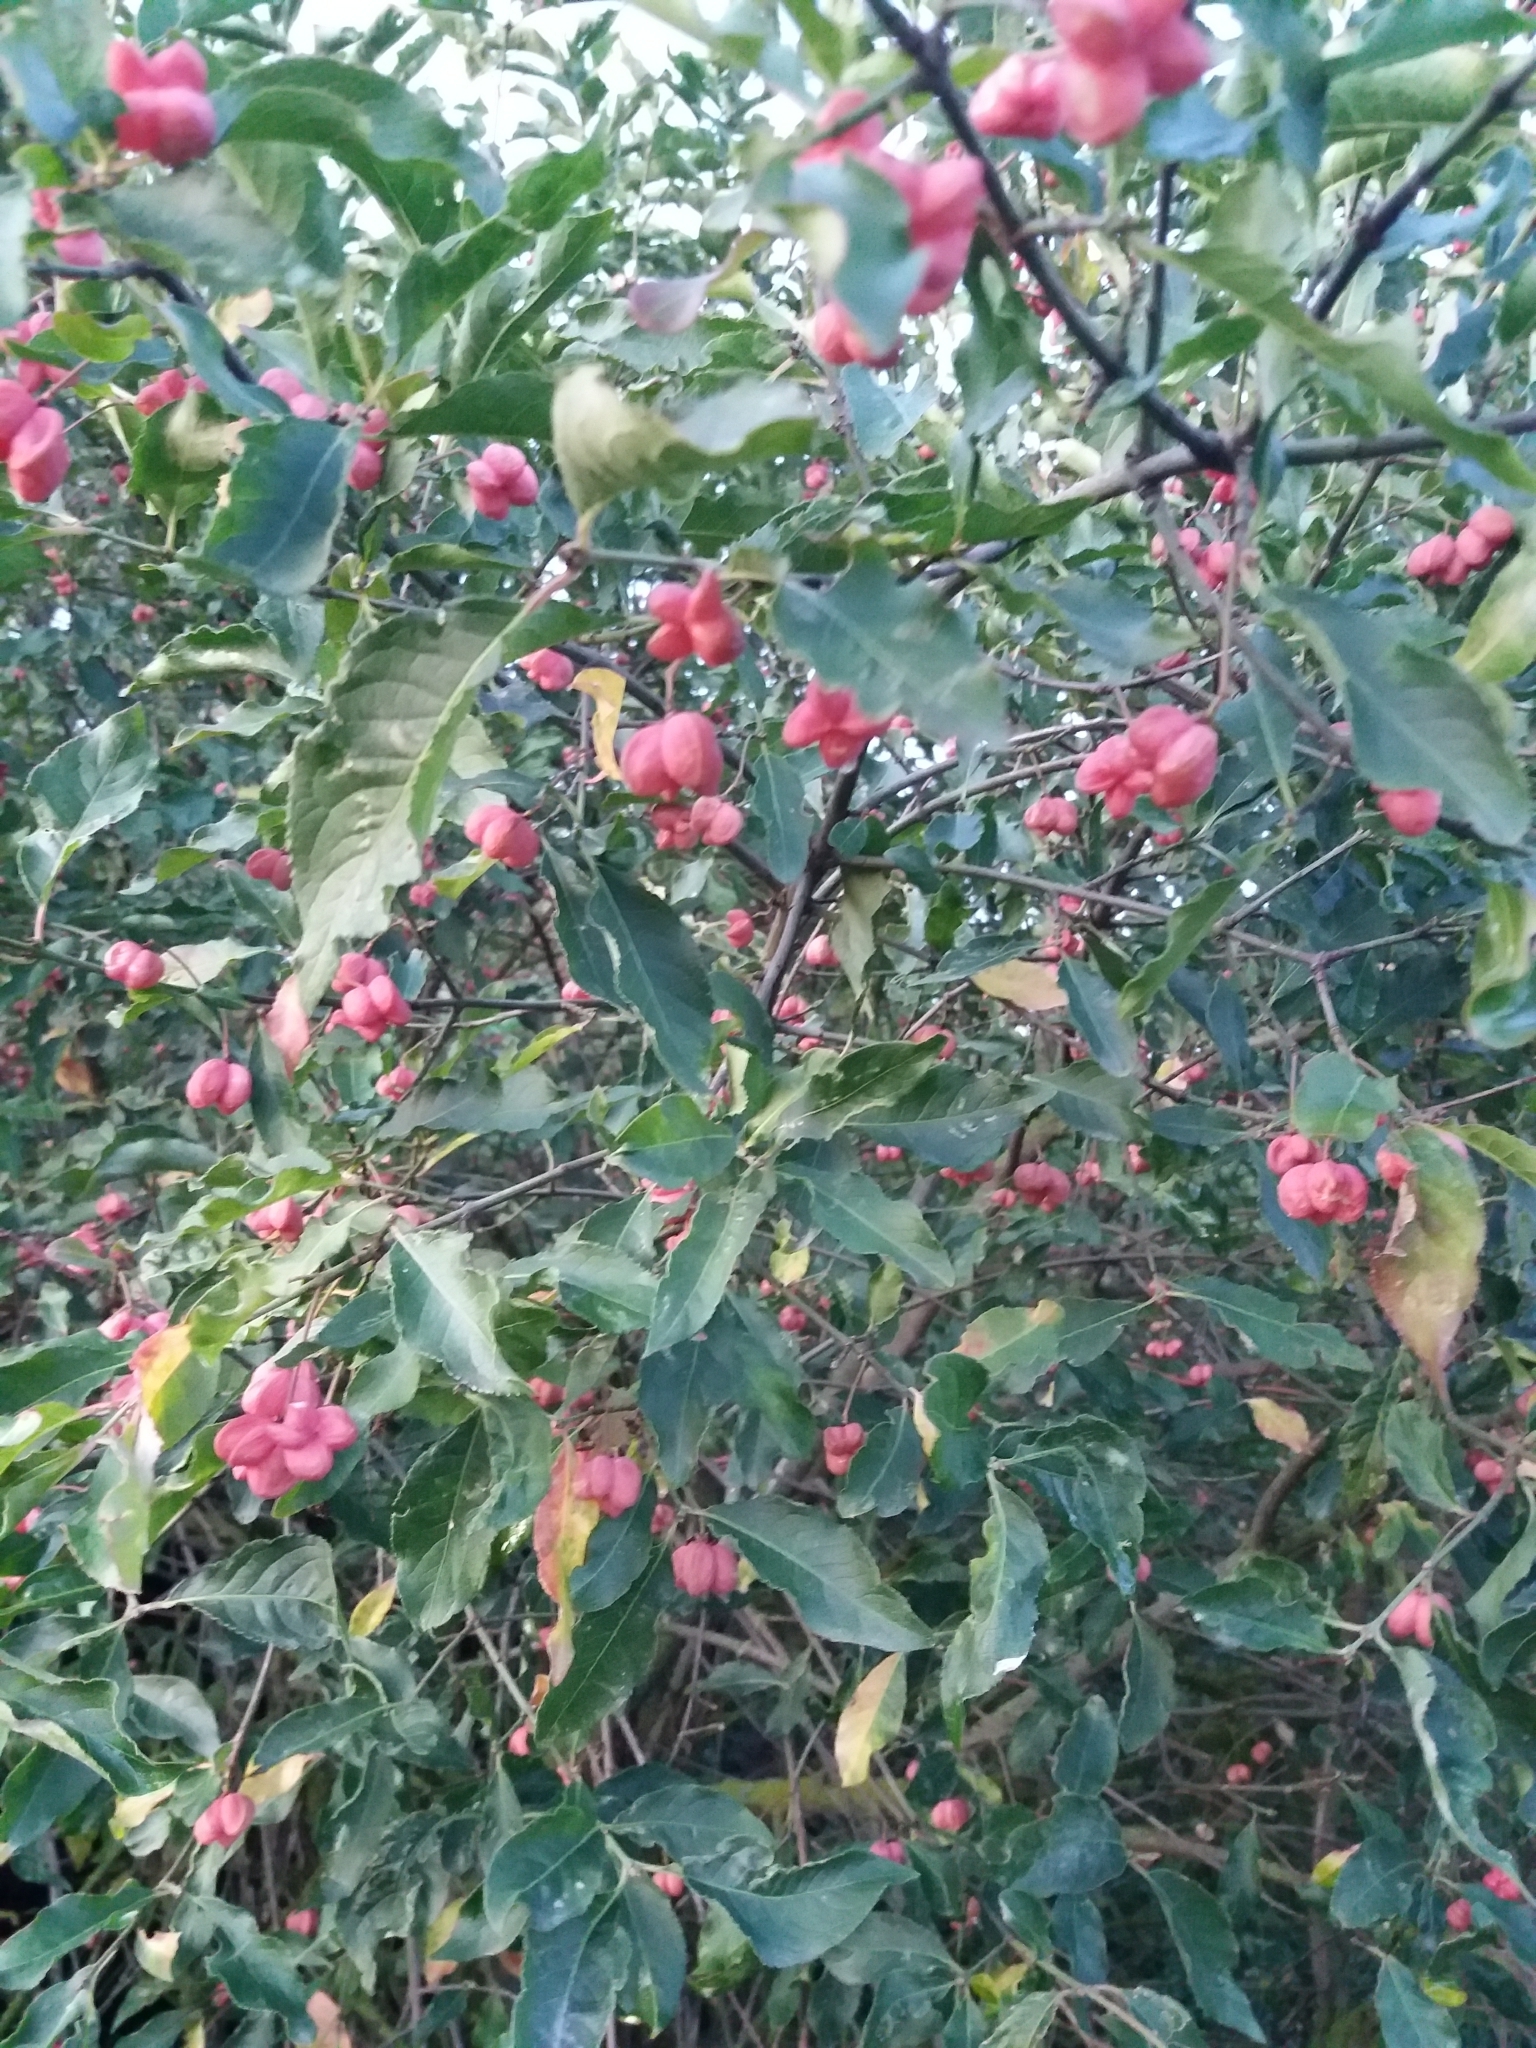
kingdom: Plantae
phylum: Tracheophyta
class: Magnoliopsida
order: Celastrales
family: Celastraceae
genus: Euonymus
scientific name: Euonymus europaeus
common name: Spindle
